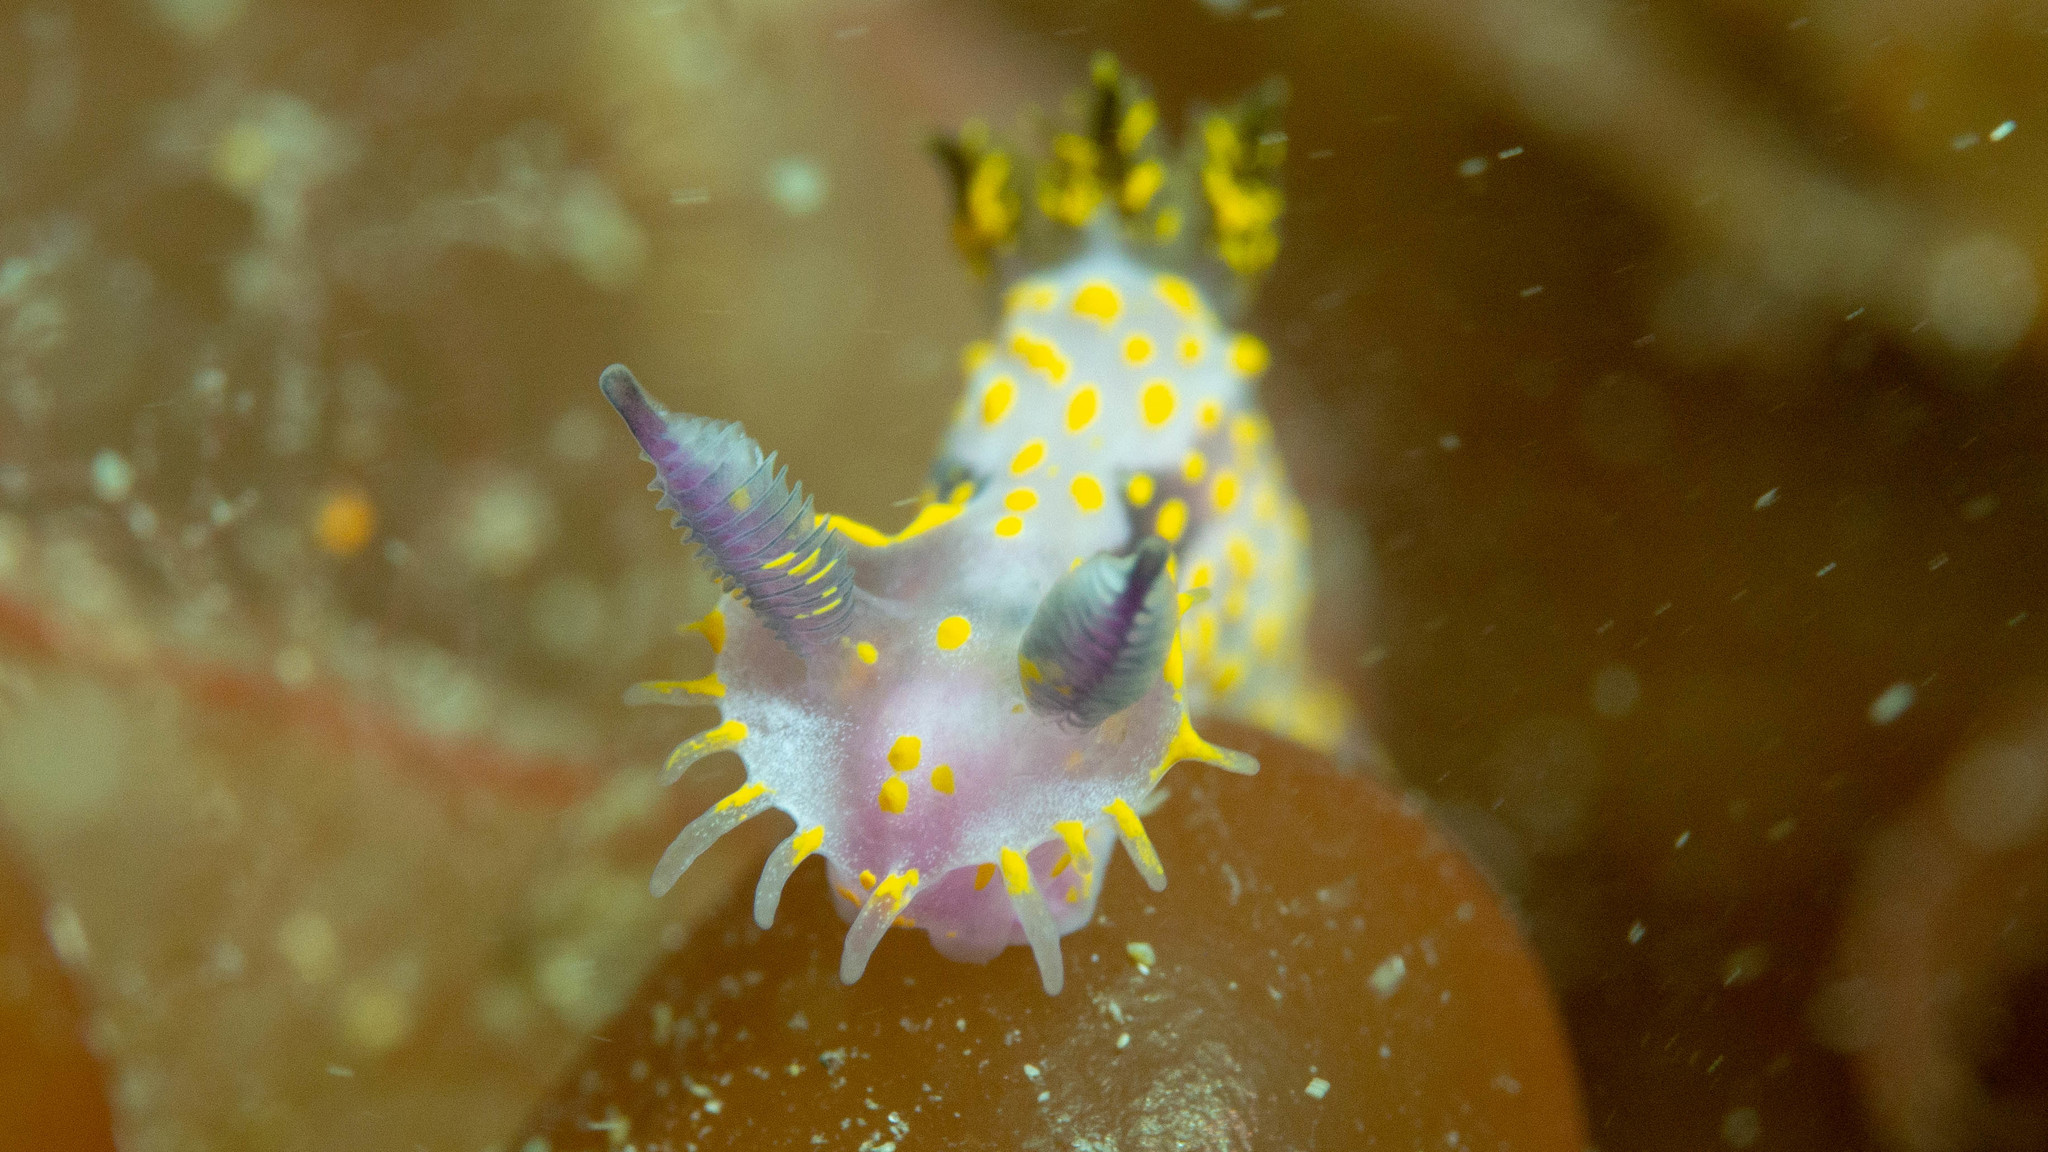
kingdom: Animalia
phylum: Mollusca
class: Gastropoda
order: Nudibranchia
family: Polyceridae
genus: Polycera
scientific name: Polycera janjukia
